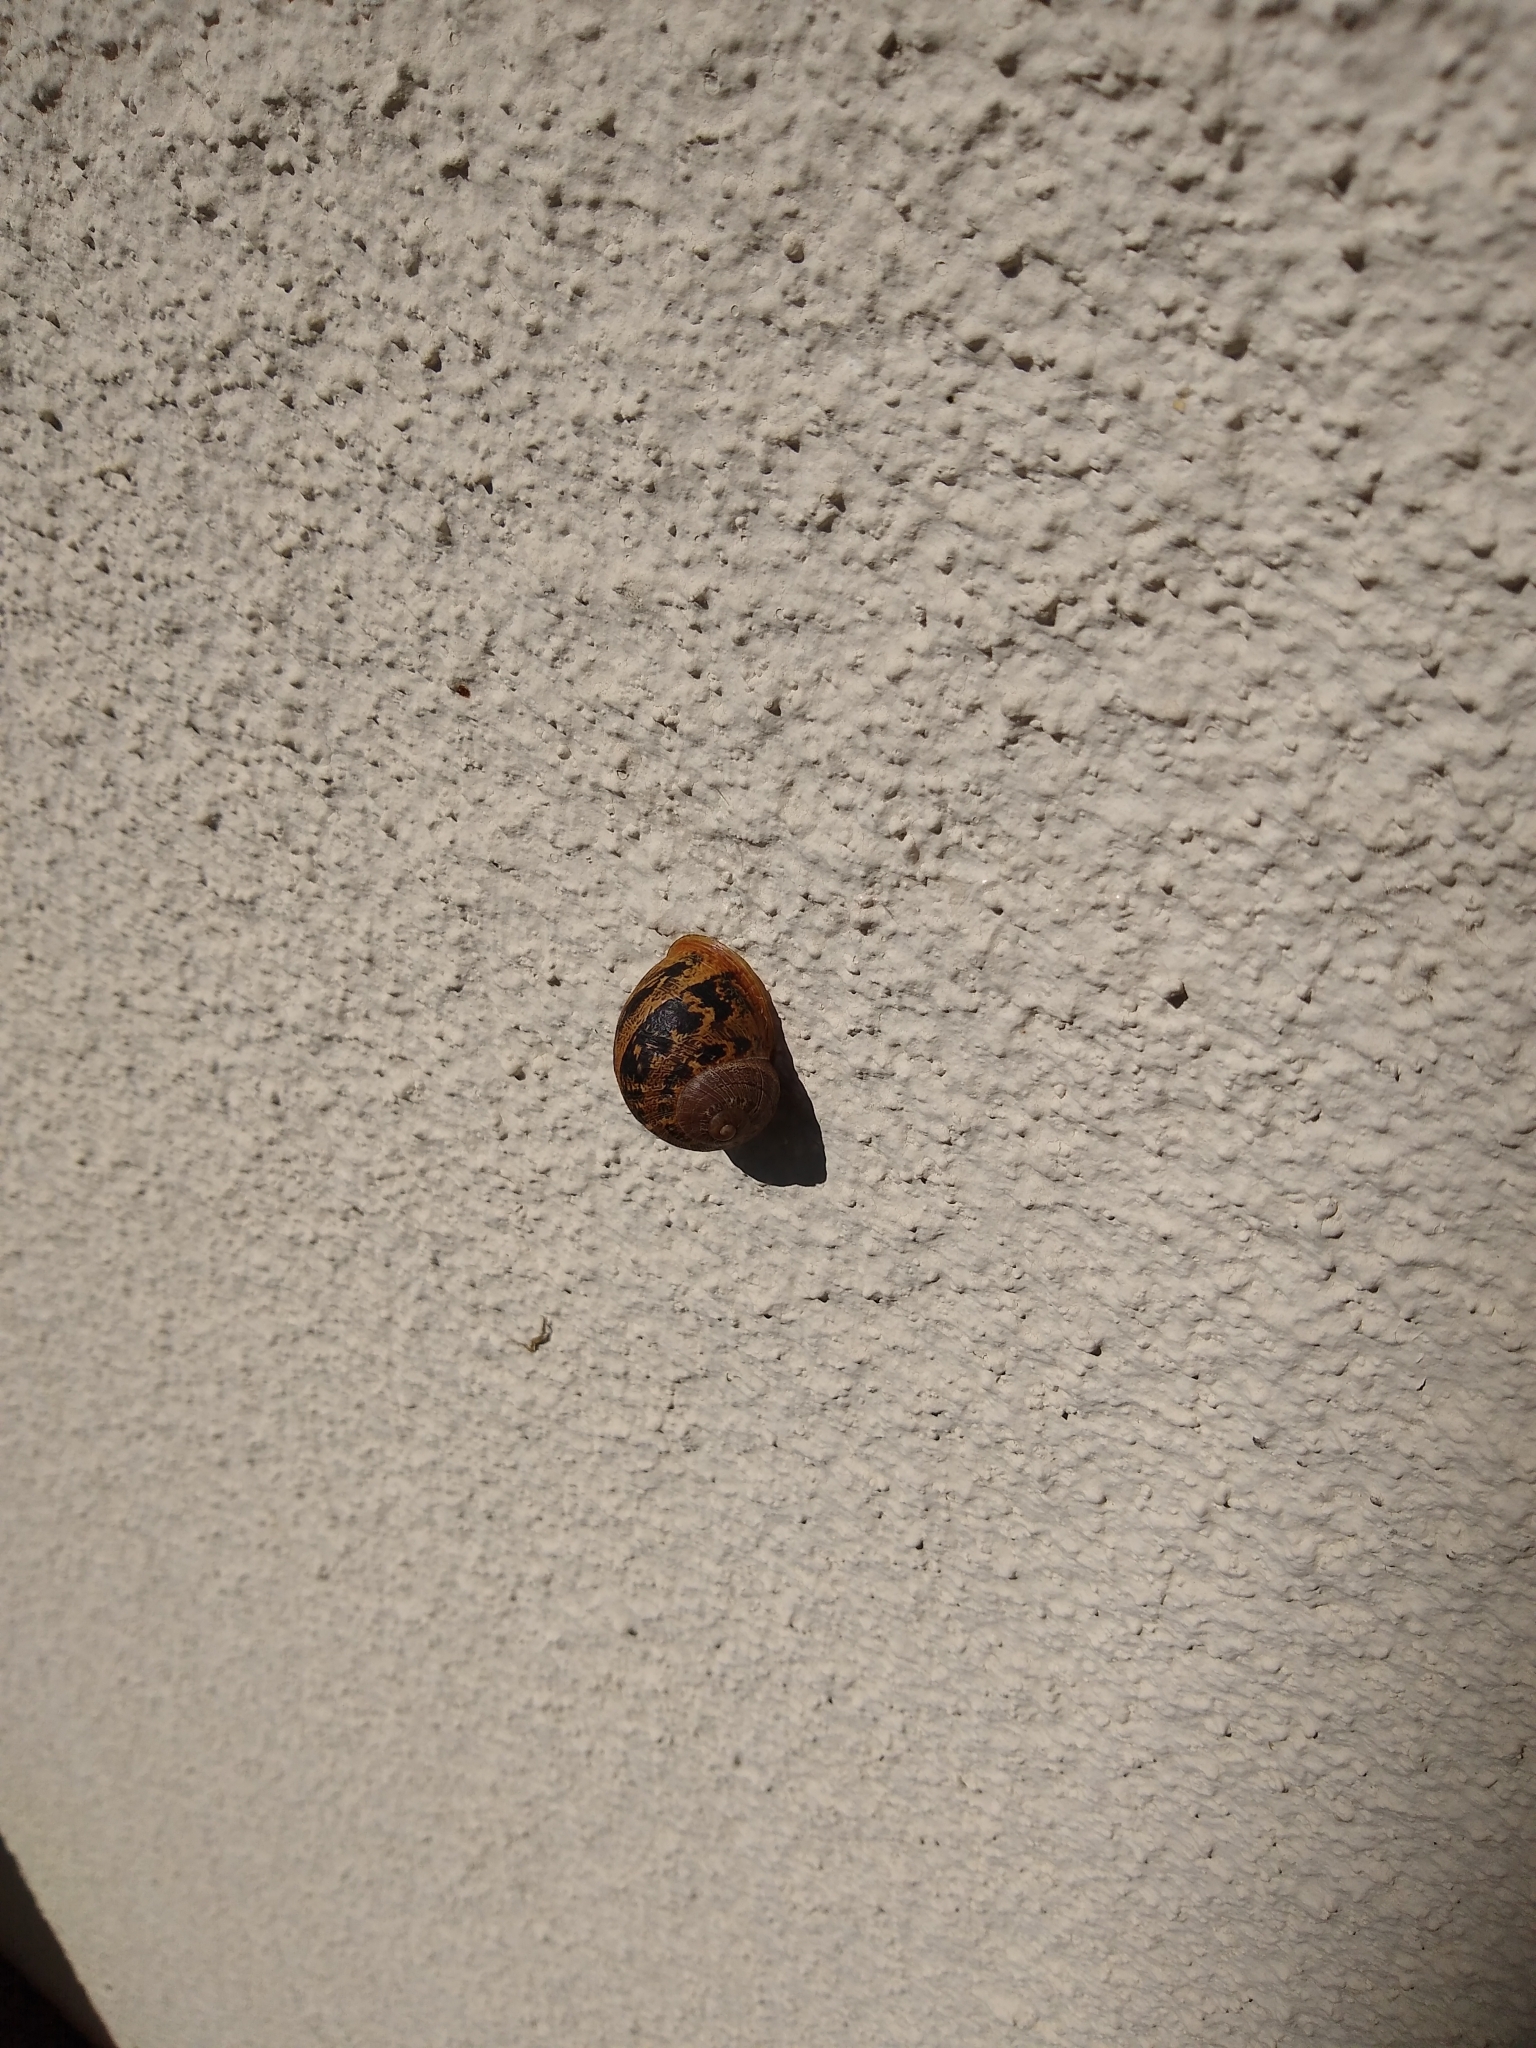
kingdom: Animalia
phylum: Mollusca
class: Gastropoda
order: Stylommatophora
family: Helicidae
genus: Cornu
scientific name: Cornu aspersum
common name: Brown garden snail
